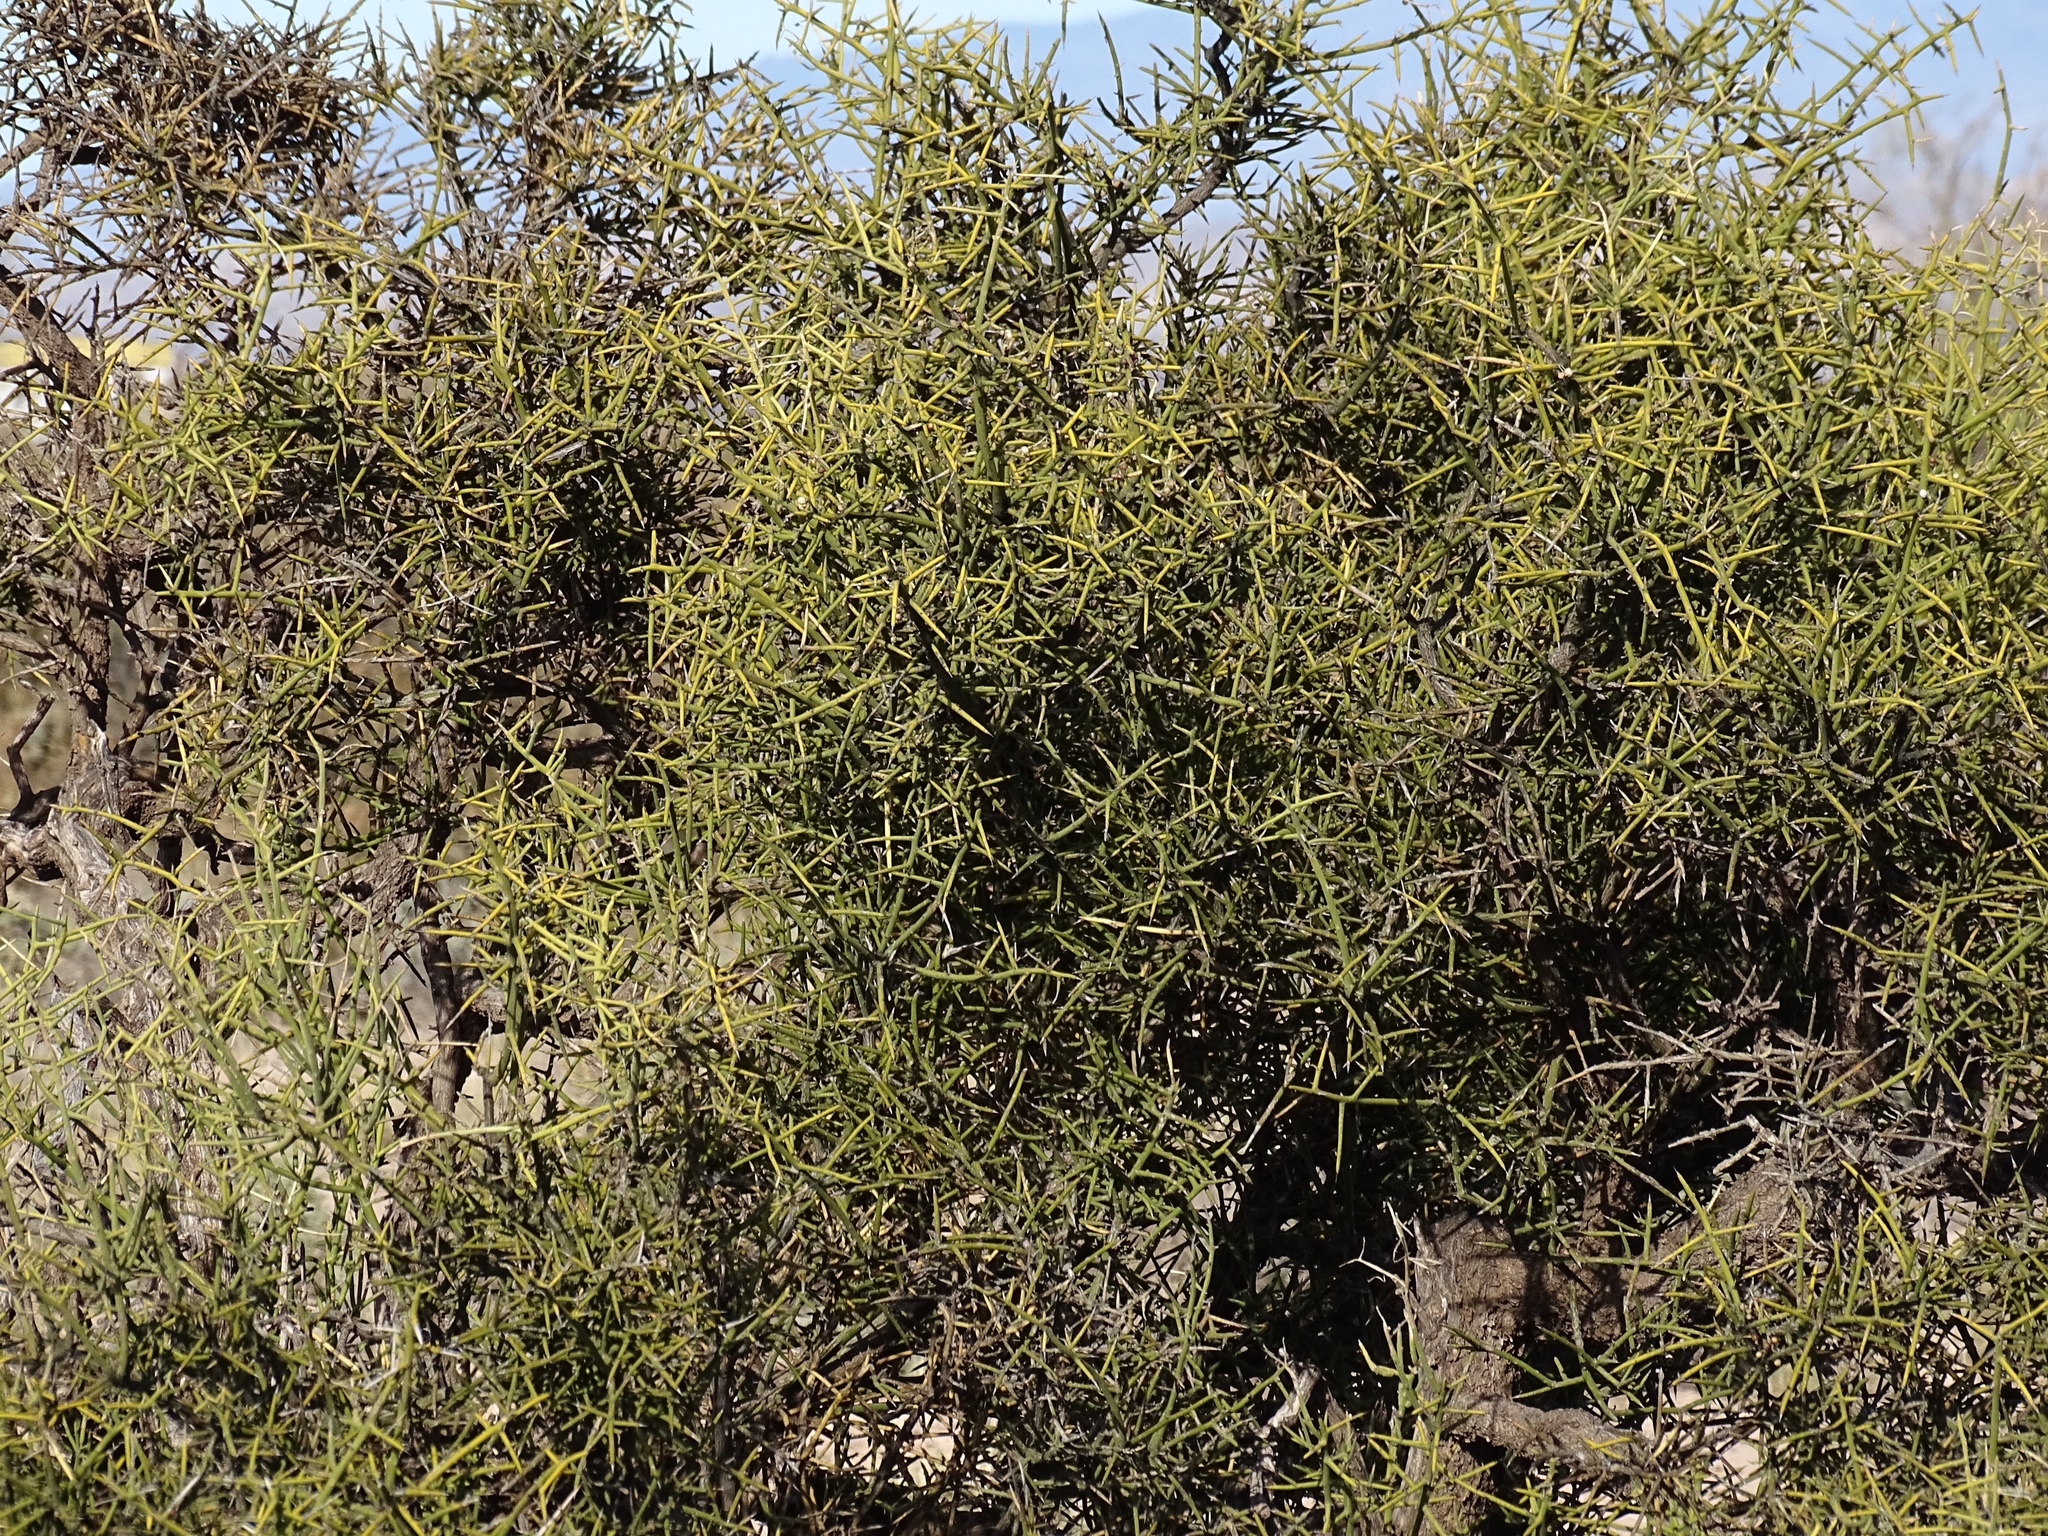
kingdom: Plantae
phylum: Tracheophyta
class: Magnoliopsida
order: Brassicales
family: Koeberliniaceae
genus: Koeberlinia
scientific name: Koeberlinia spinosa
